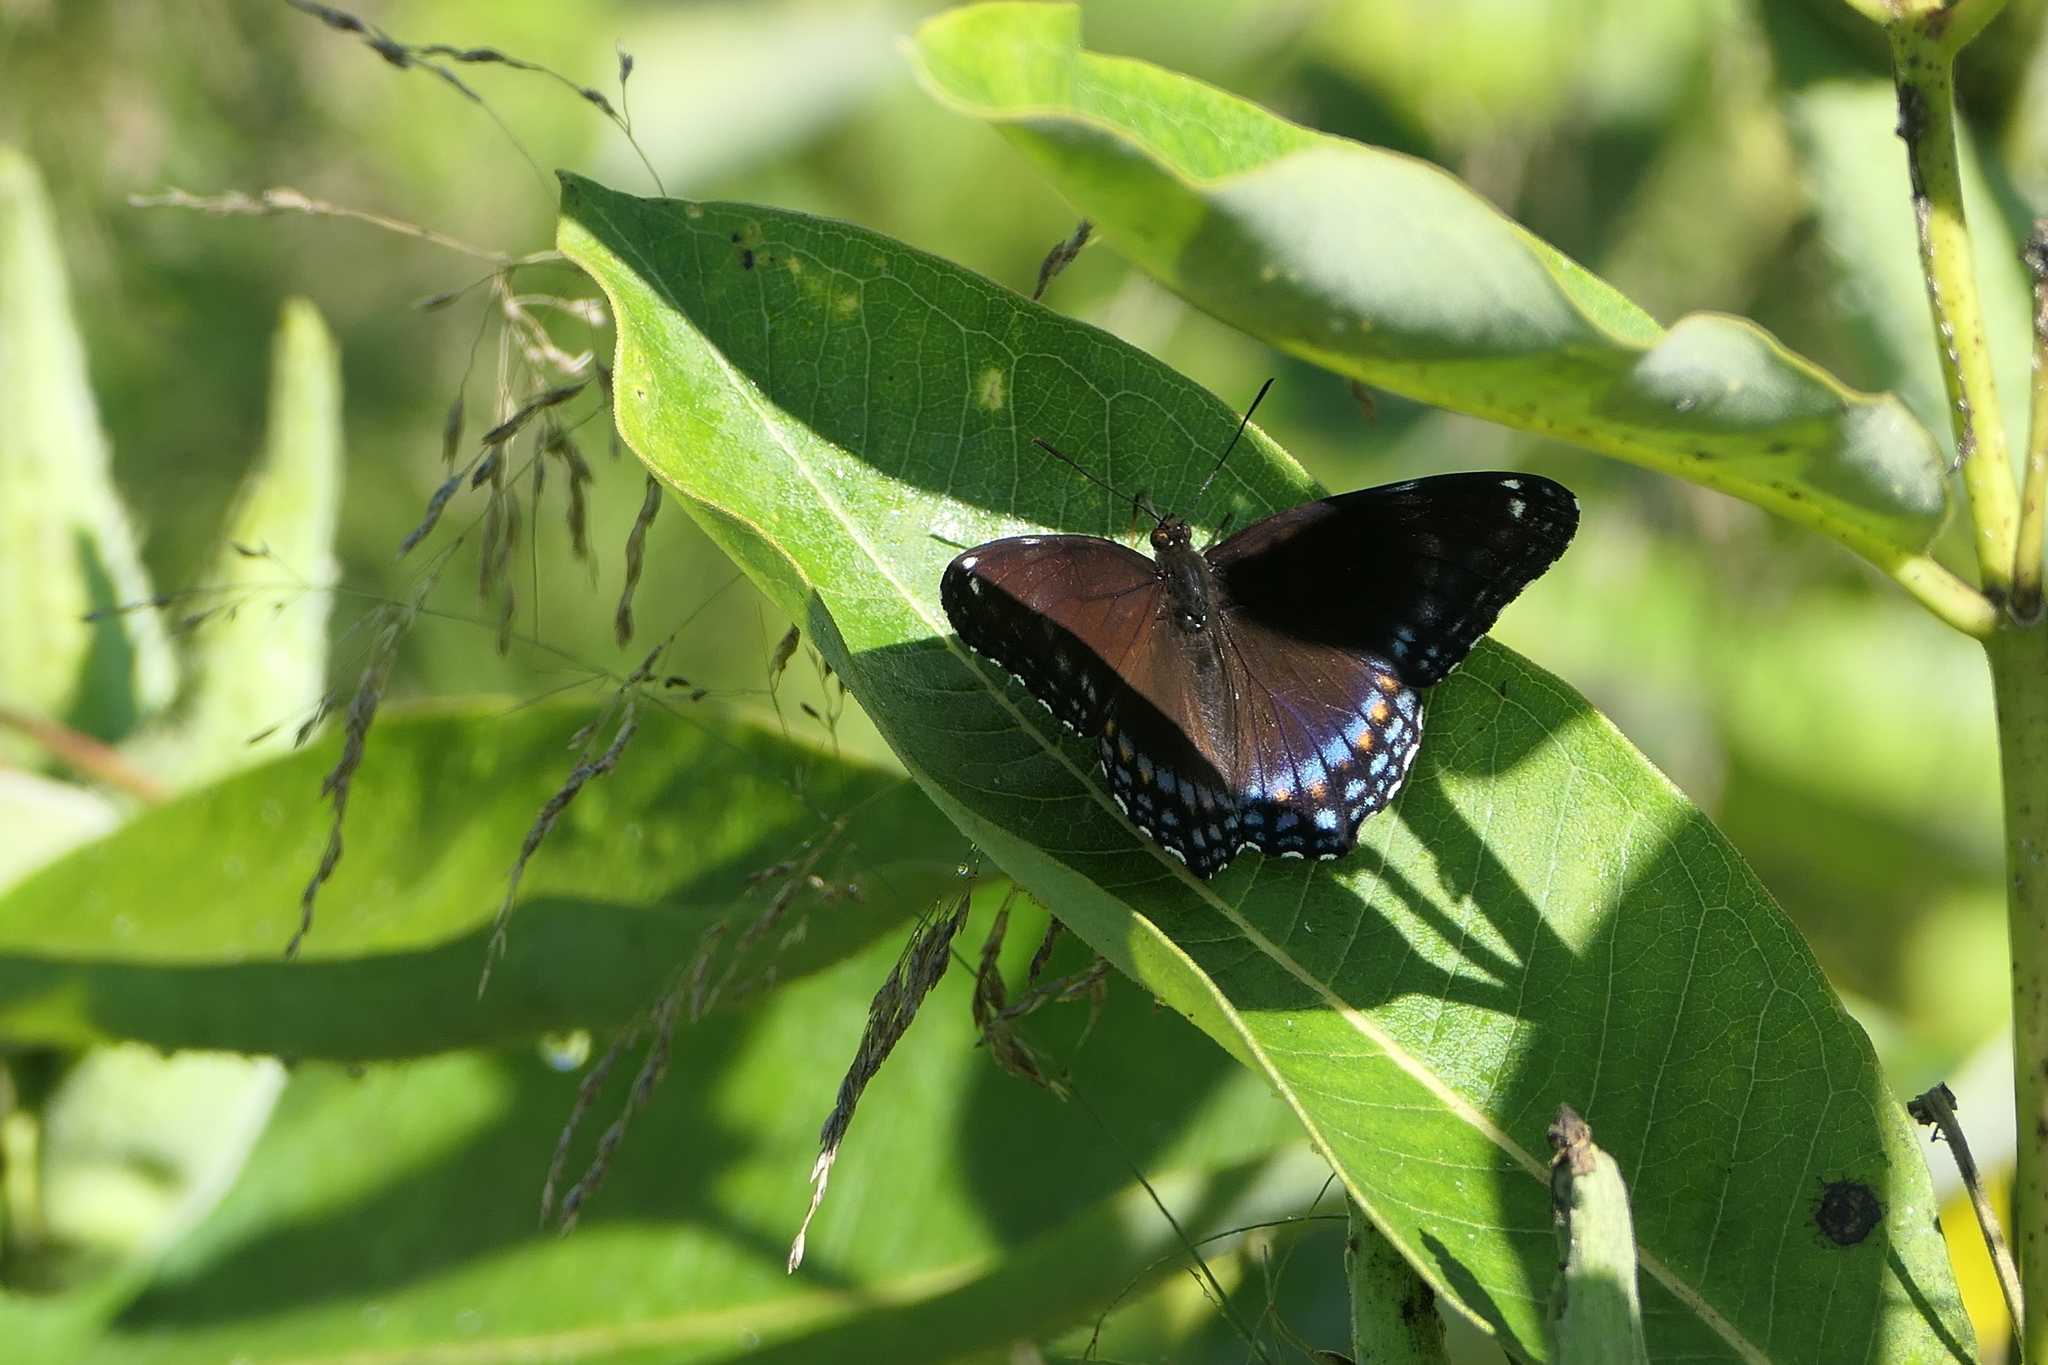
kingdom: Animalia
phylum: Arthropoda
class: Insecta
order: Lepidoptera
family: Nymphalidae
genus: Limenitis
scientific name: Limenitis arthemis
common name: Red-spotted admiral
